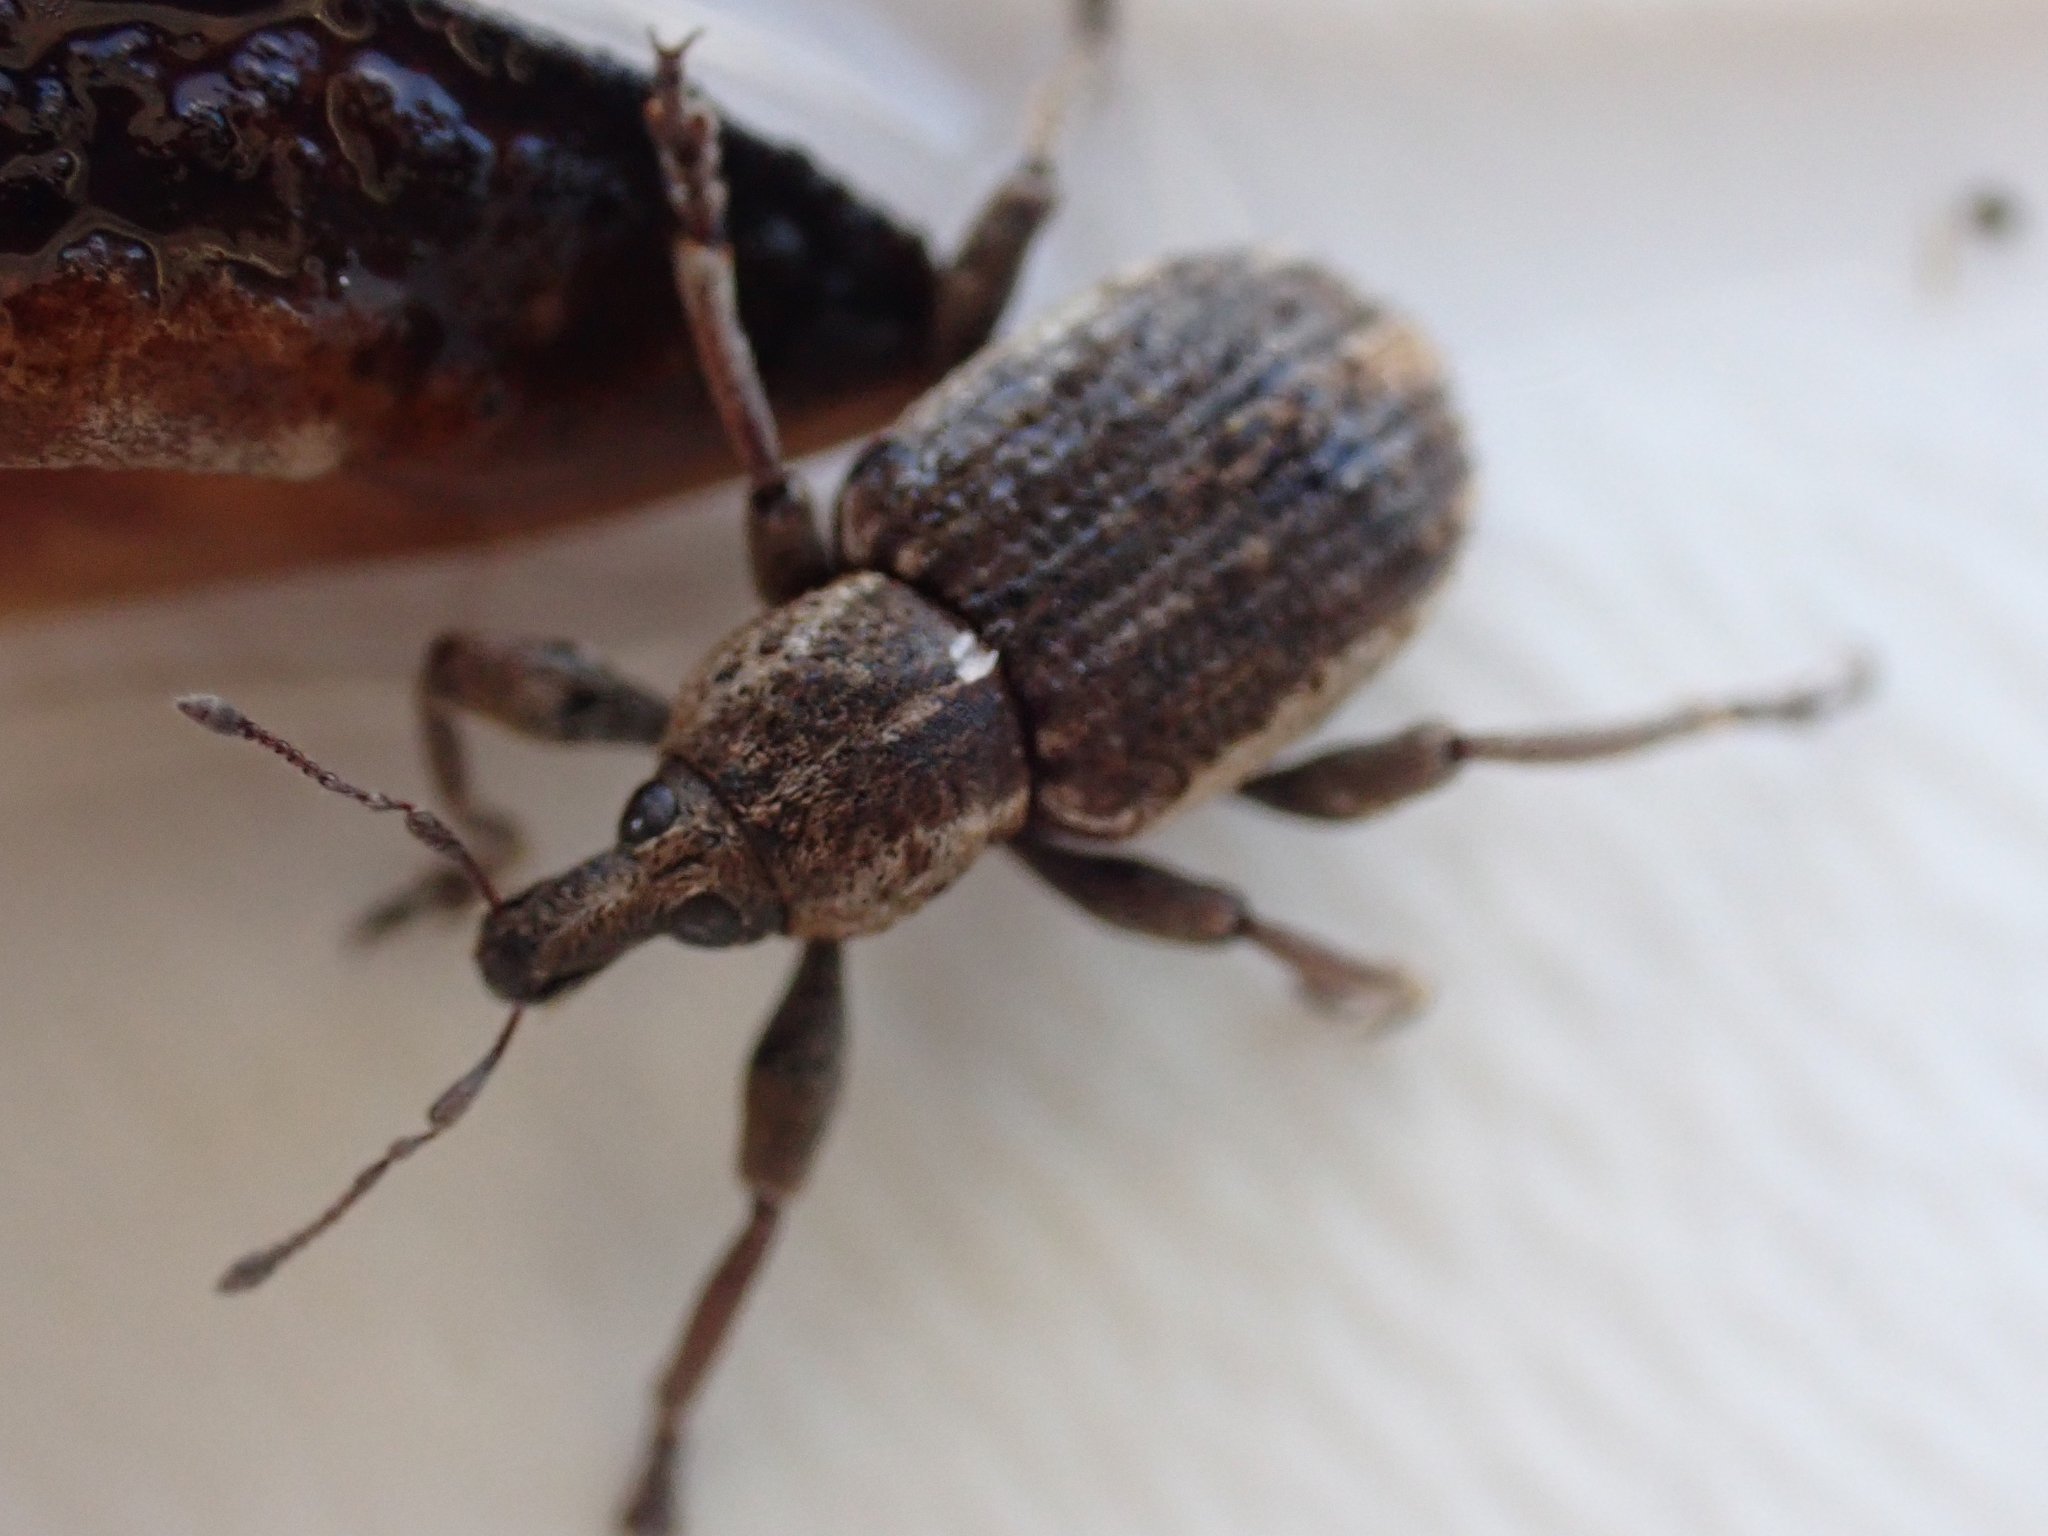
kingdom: Animalia
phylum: Arthropoda
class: Insecta
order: Coleoptera
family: Curculionidae
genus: Brachypera
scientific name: Brachypera zoilus
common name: Clover leaf weevil
